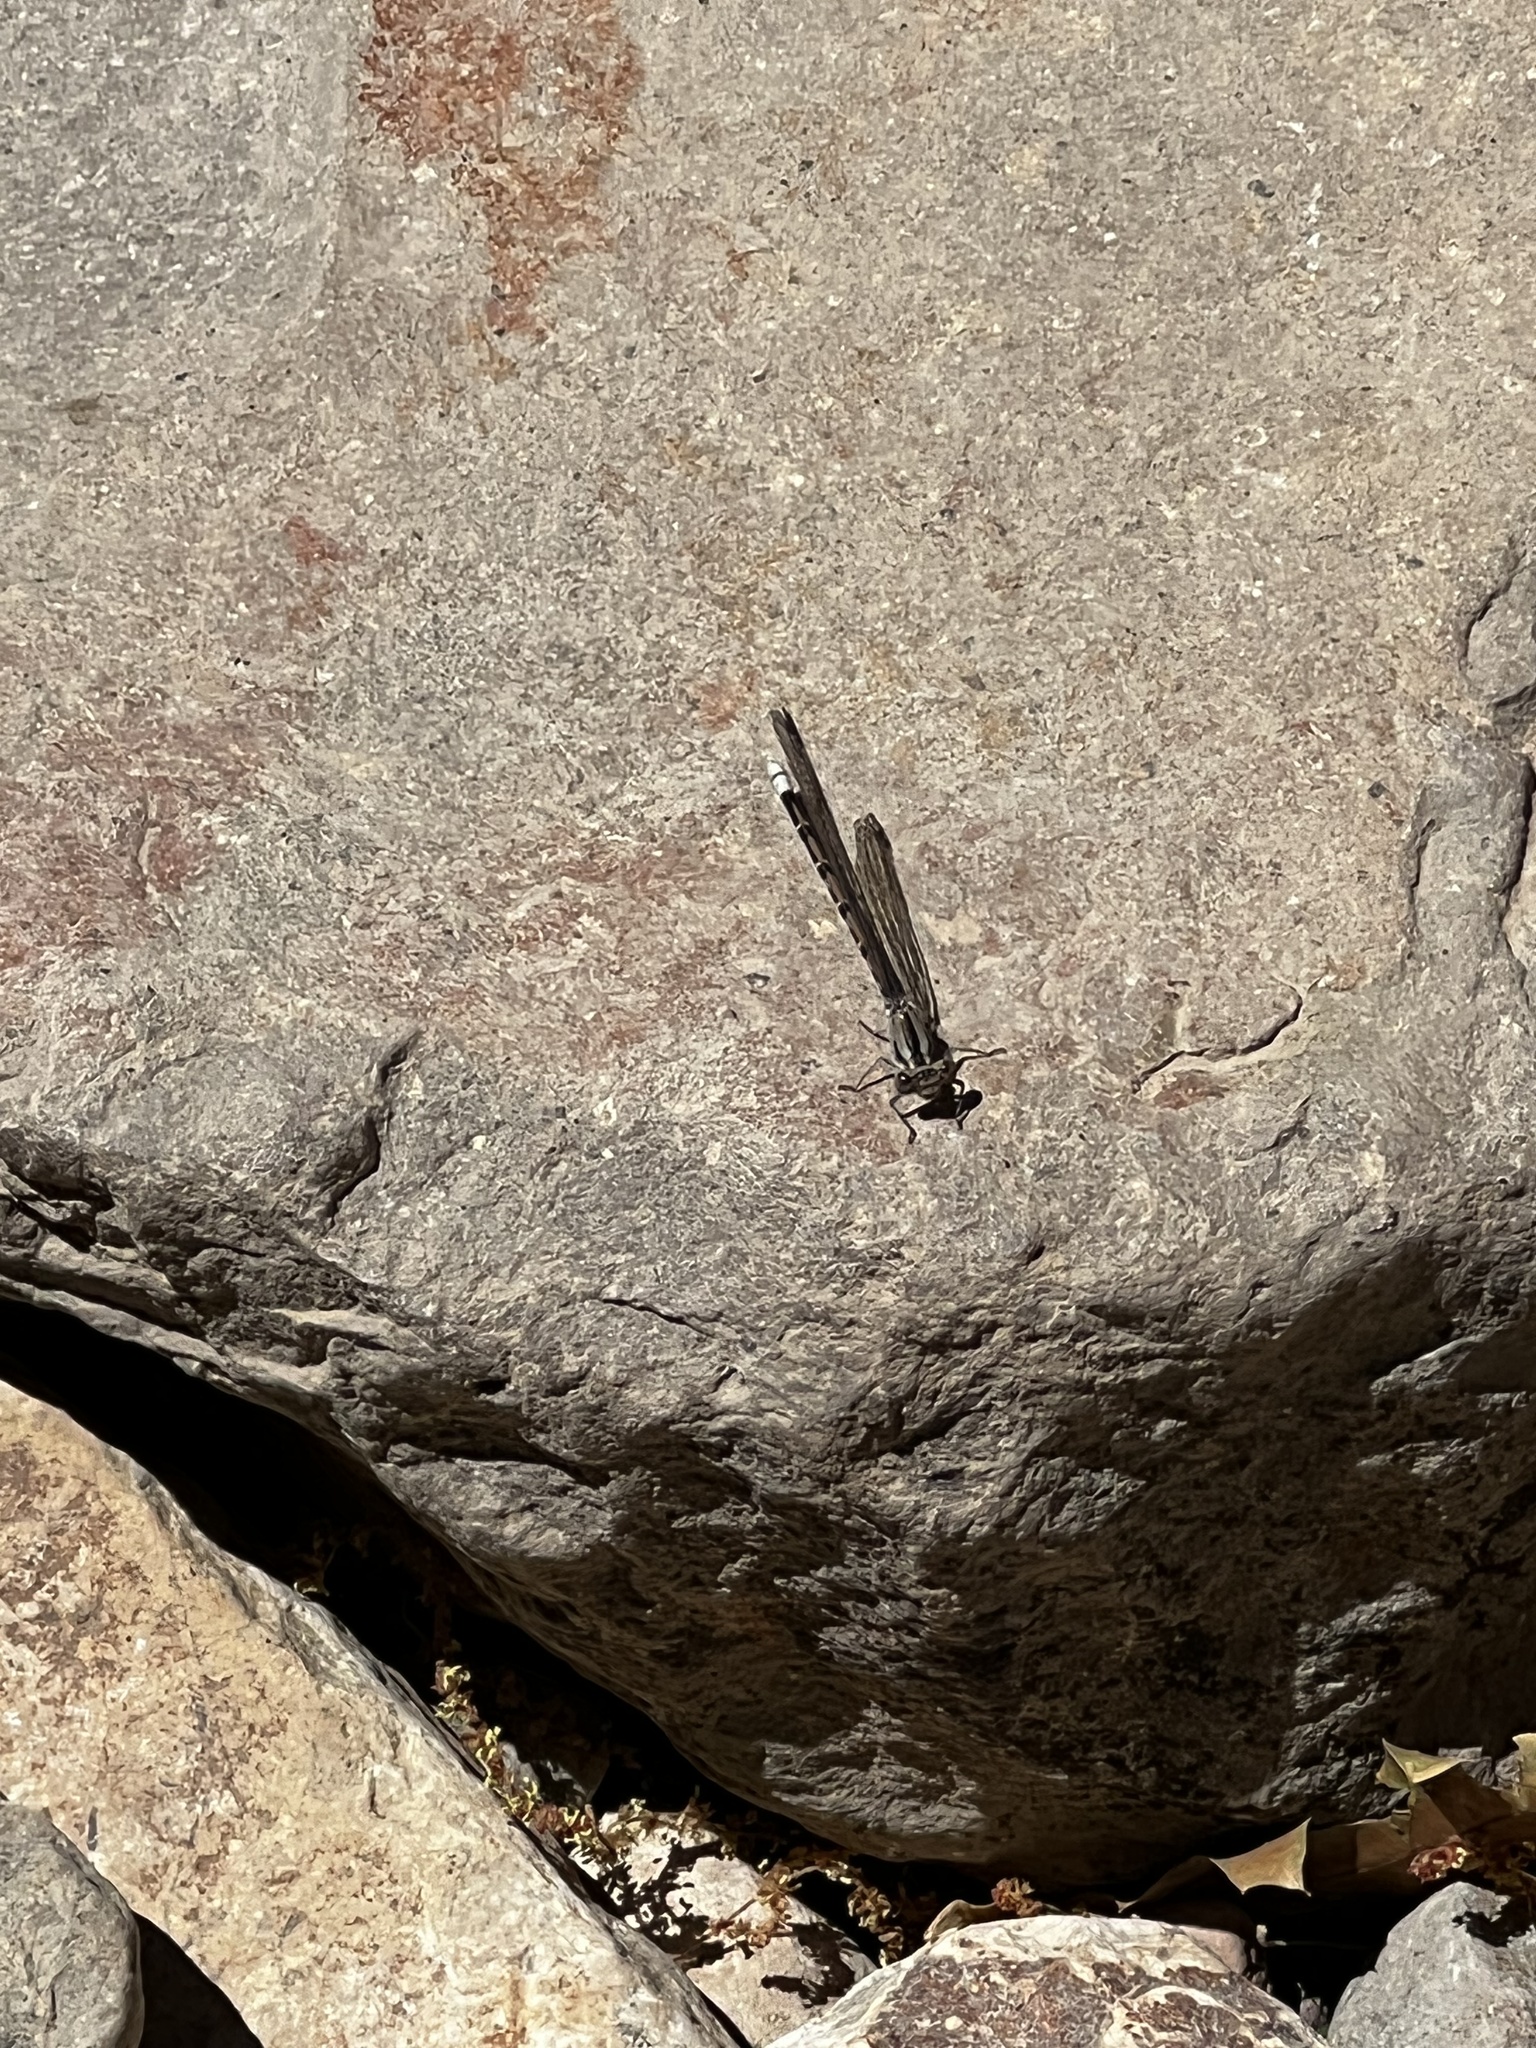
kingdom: Animalia
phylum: Arthropoda
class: Insecta
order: Odonata
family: Coenagrionidae
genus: Argia
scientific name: Argia funebris
